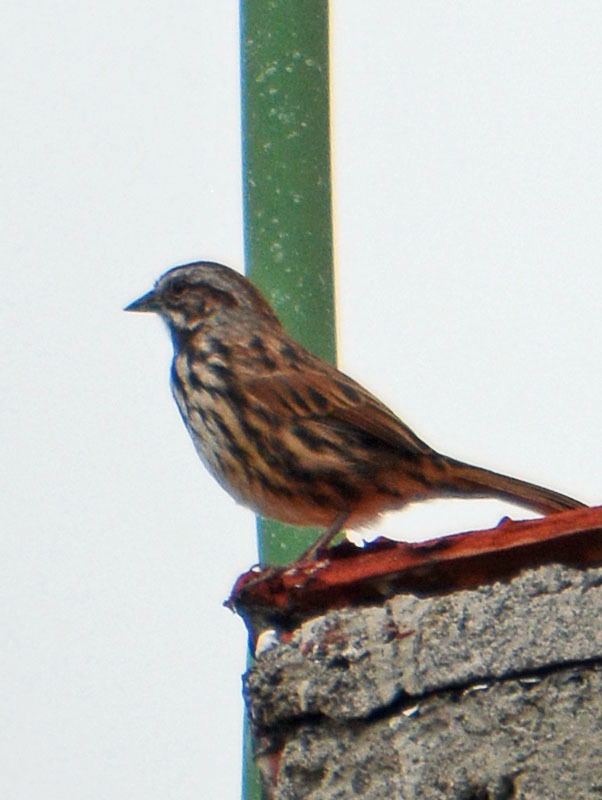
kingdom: Animalia
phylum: Chordata
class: Aves
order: Passeriformes
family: Passerellidae
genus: Melospiza
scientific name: Melospiza melodia
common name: Song sparrow
